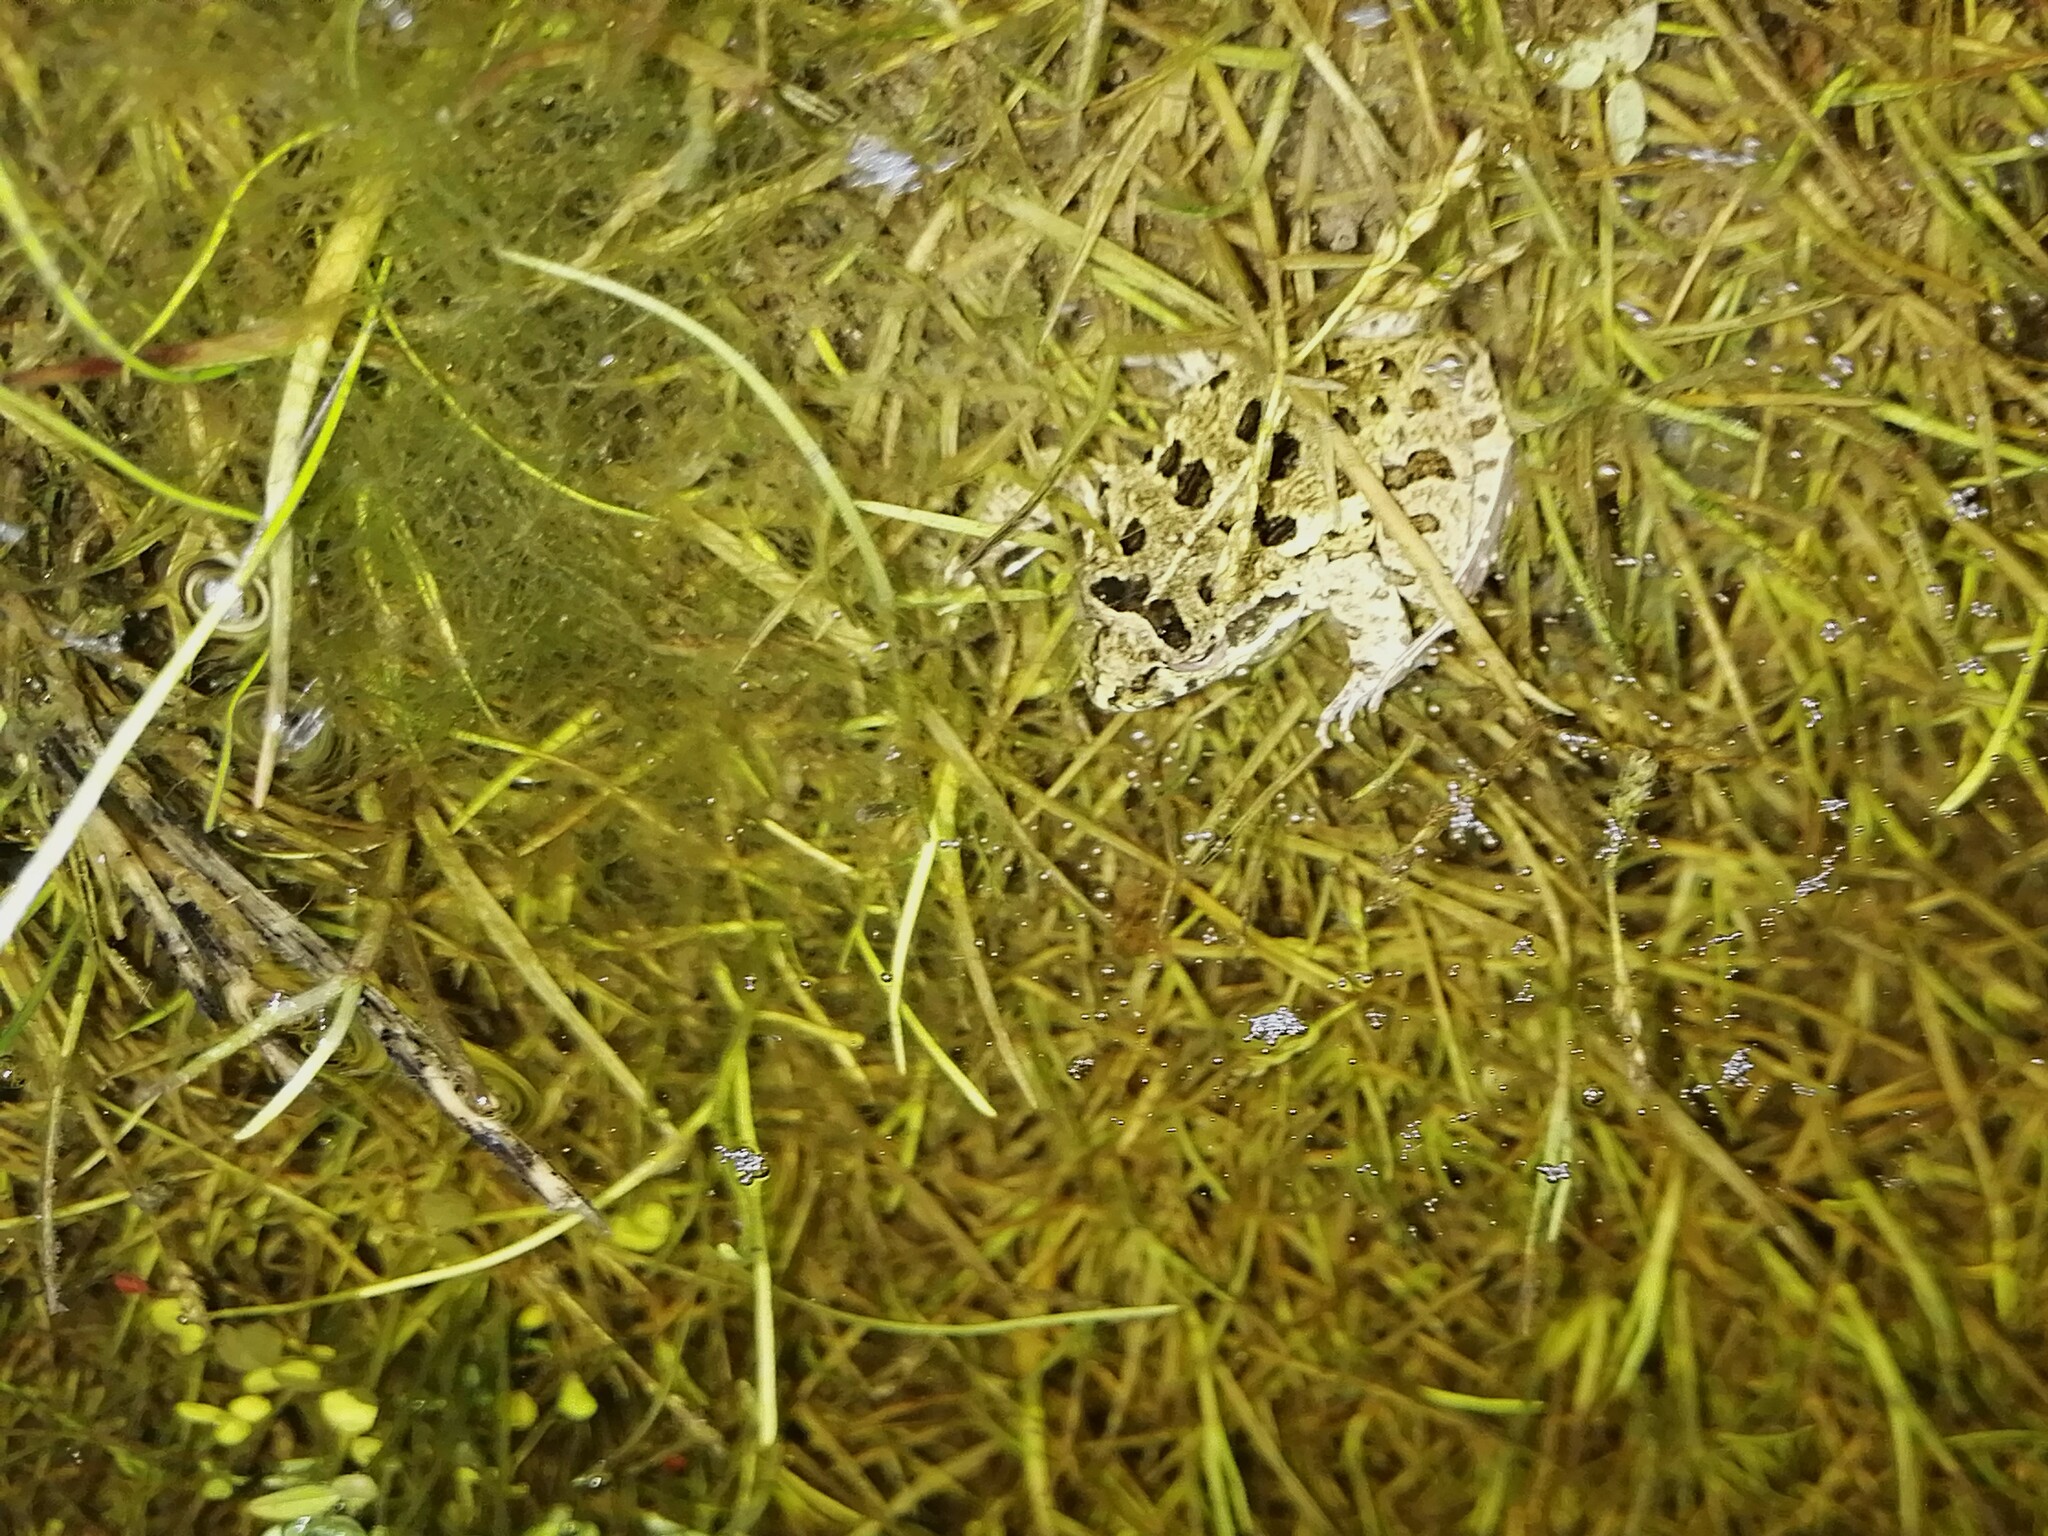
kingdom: Animalia
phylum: Chordata
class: Amphibia
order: Anura
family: Pyxicephalidae
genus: Strongylopus
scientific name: Strongylopus grayii
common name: Gray's stream frog
